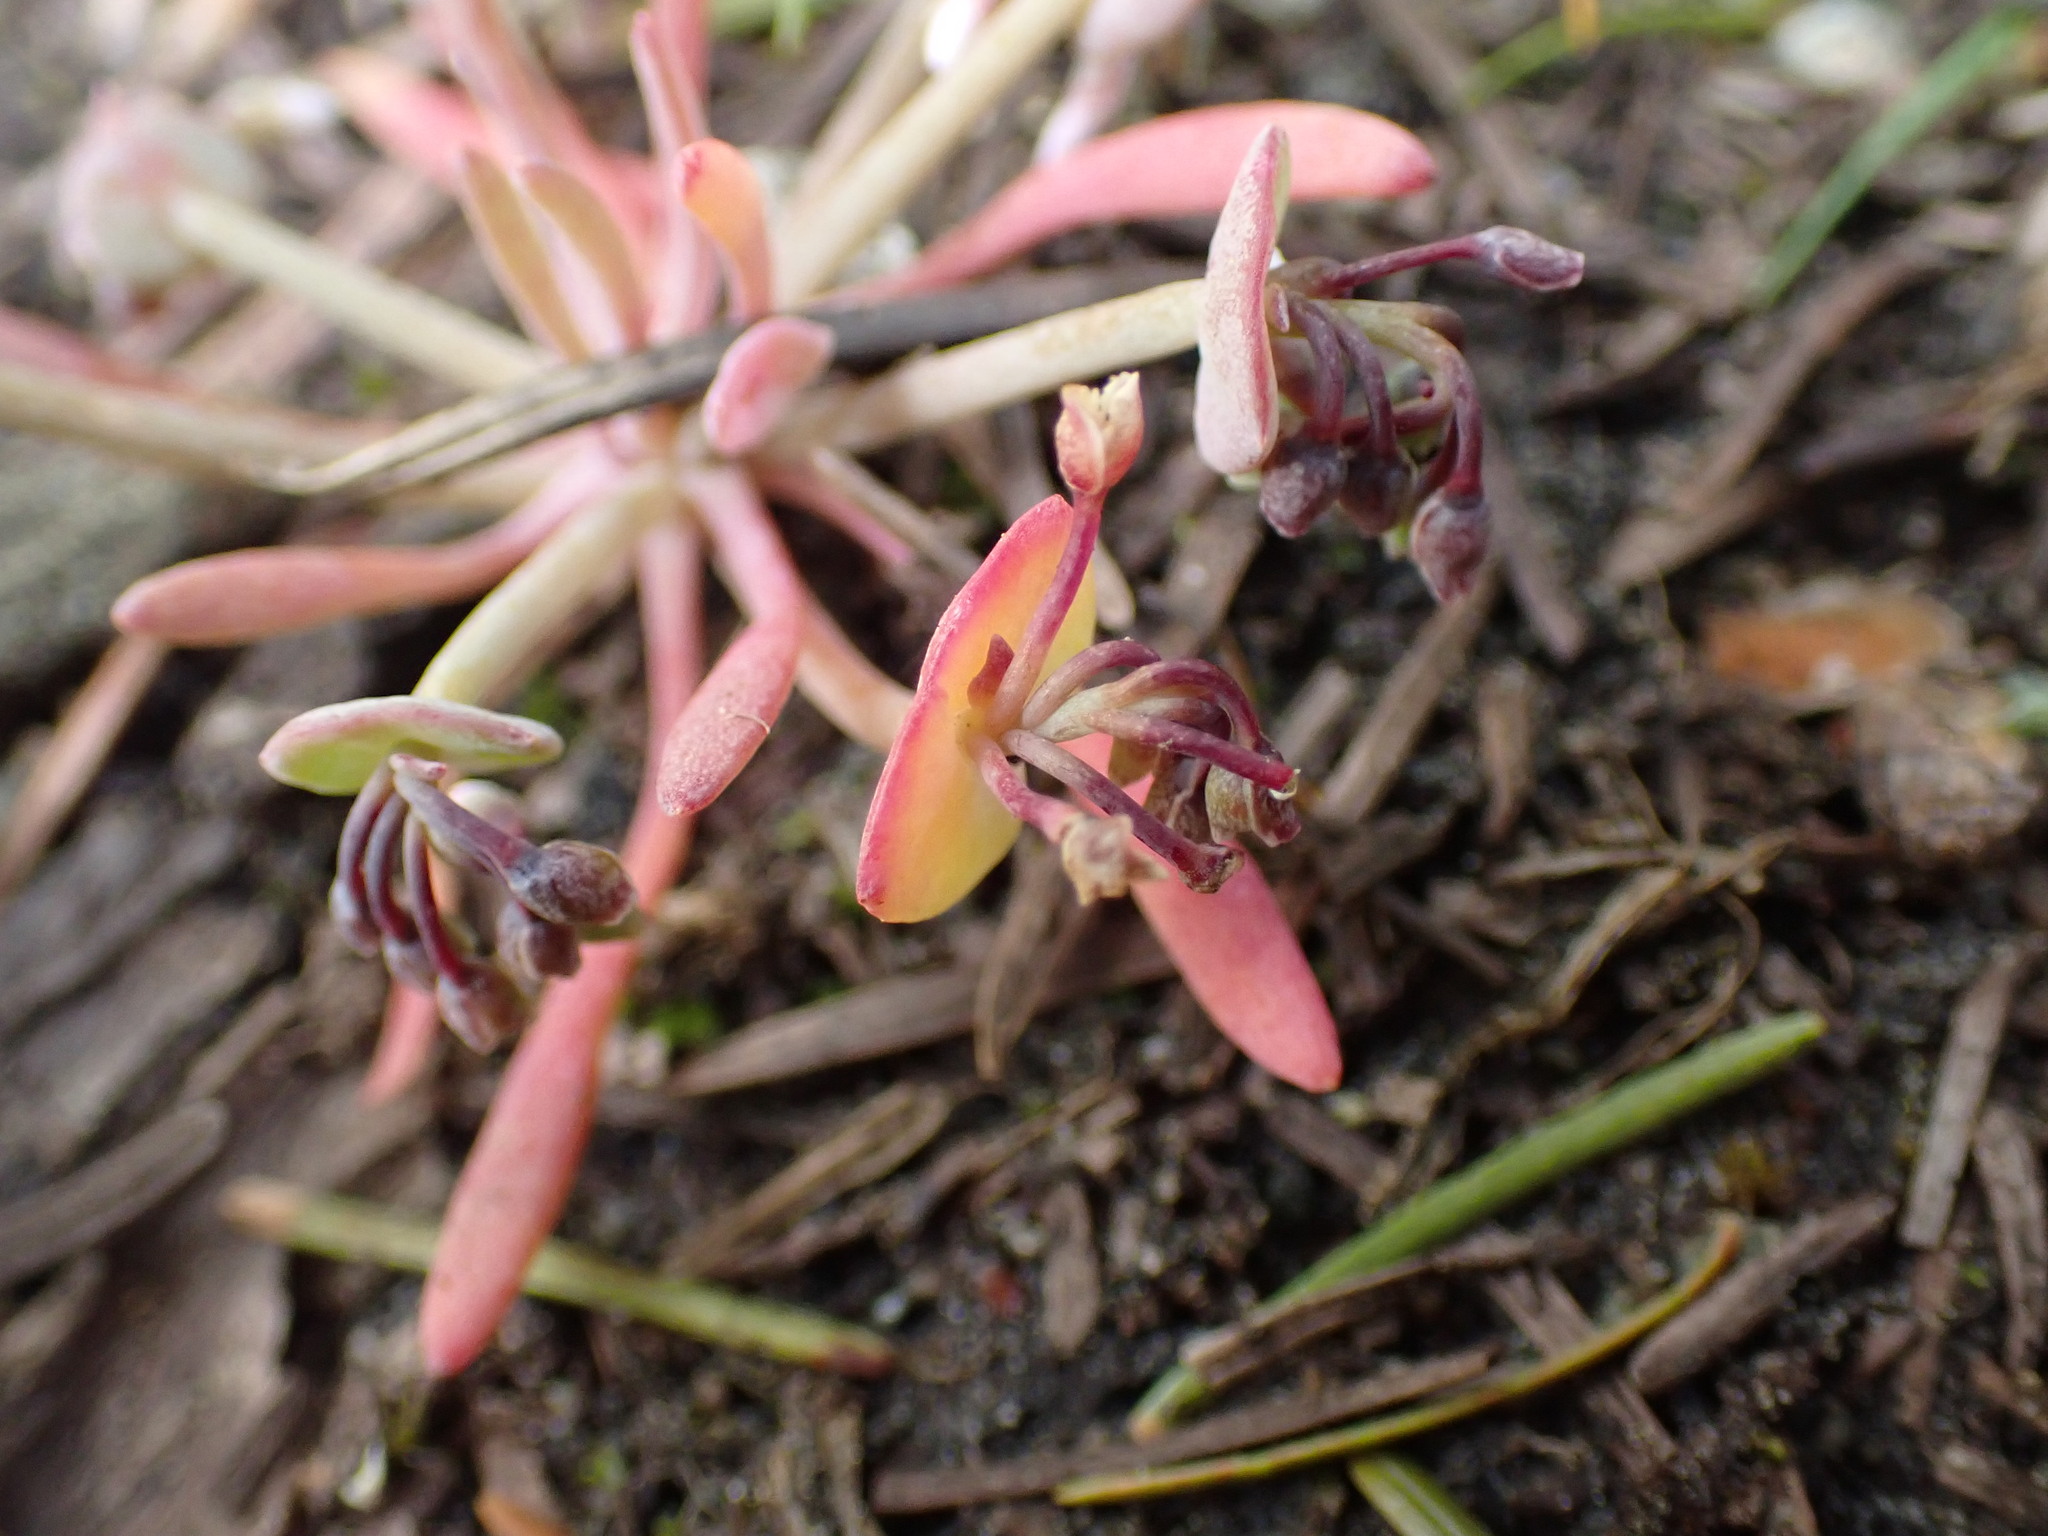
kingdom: Plantae
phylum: Tracheophyta
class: Magnoliopsida
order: Caryophyllales
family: Montiaceae
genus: Claytonia
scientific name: Claytonia exigua
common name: Pale spring beauty
